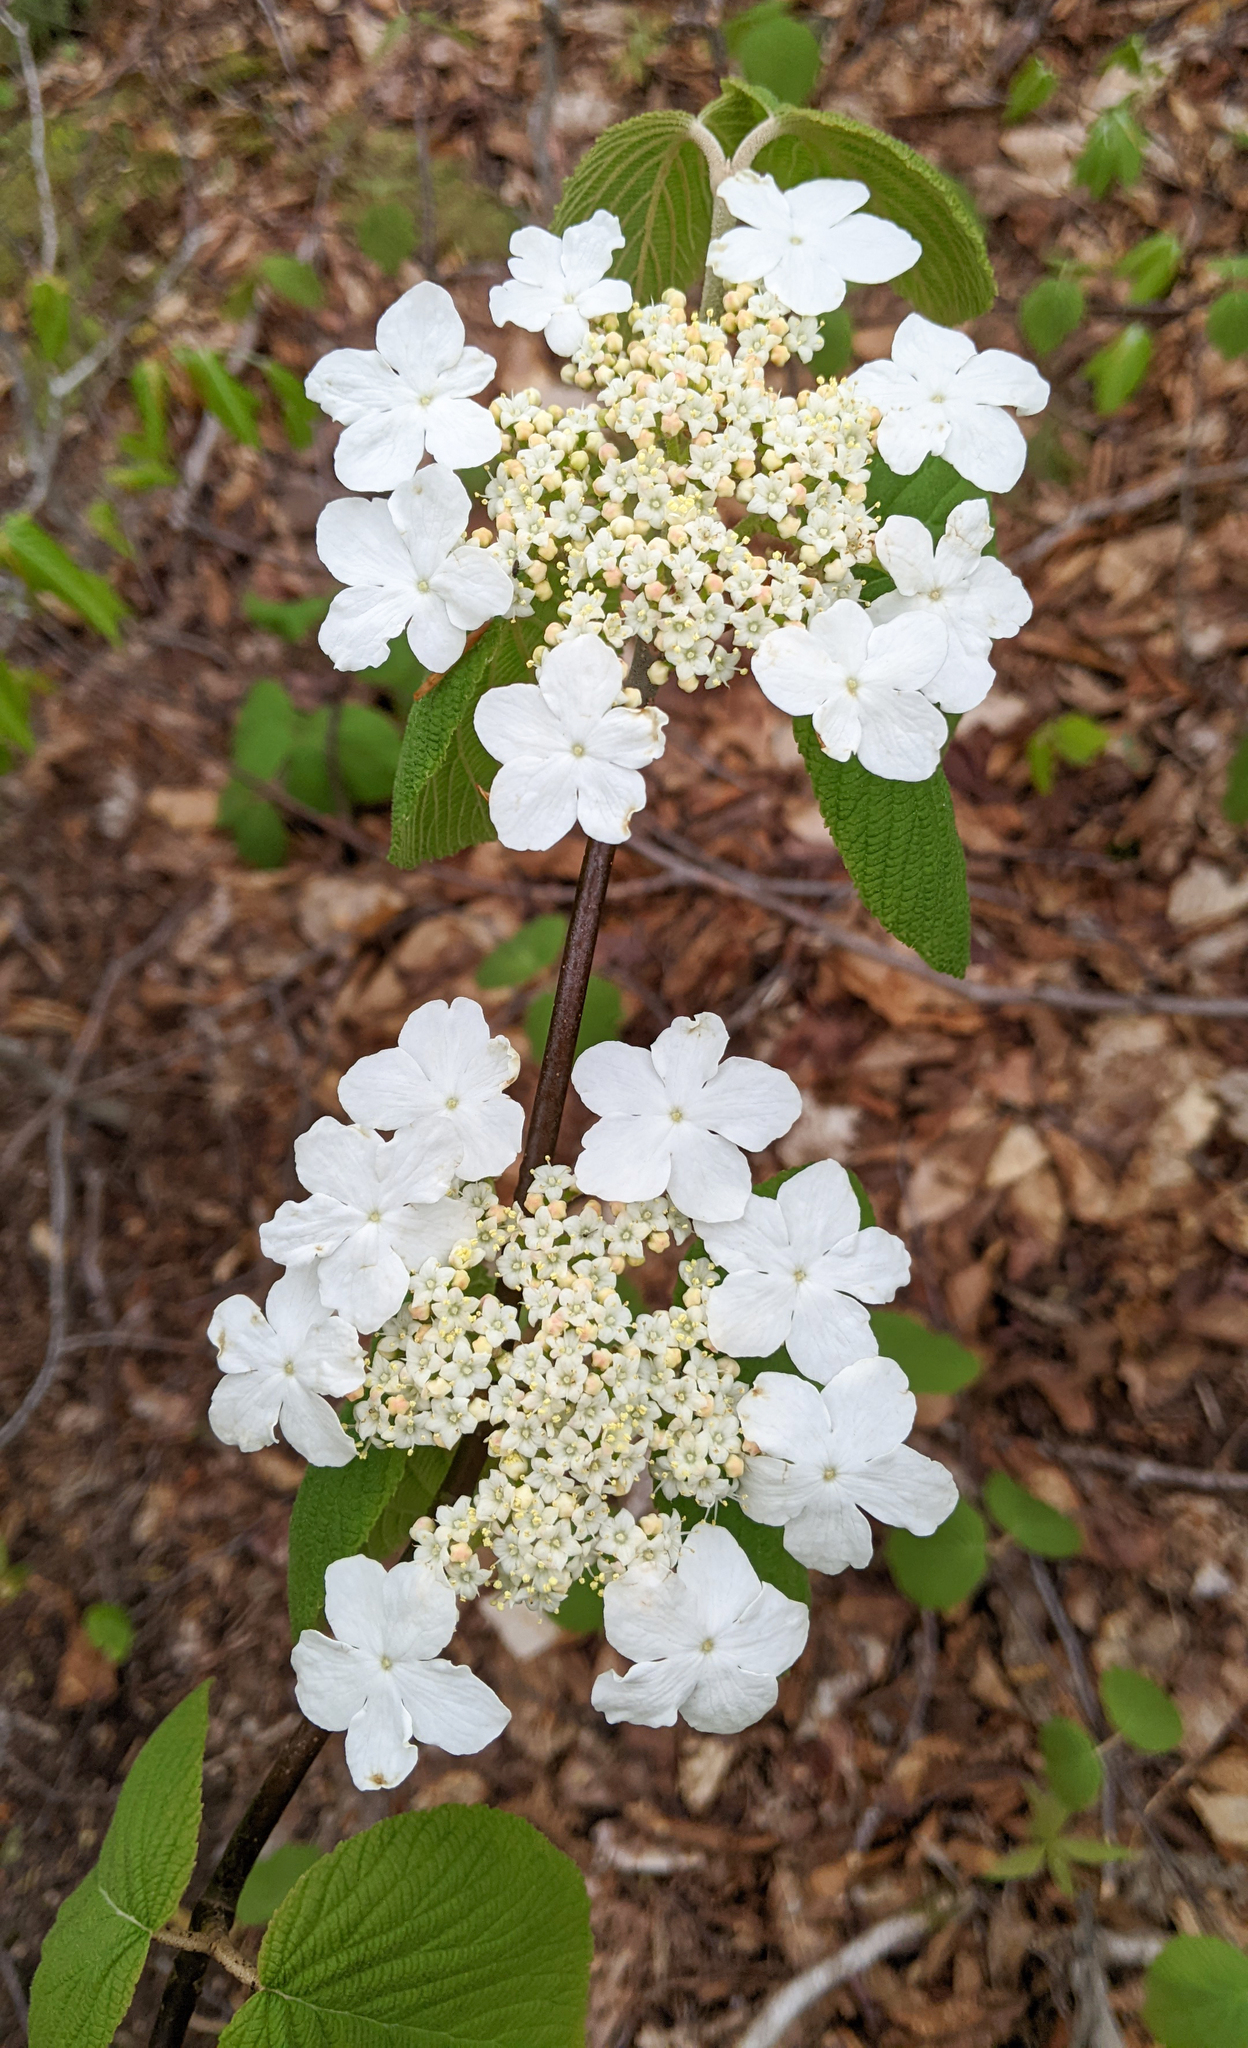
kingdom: Plantae
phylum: Tracheophyta
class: Magnoliopsida
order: Dipsacales
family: Viburnaceae
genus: Viburnum
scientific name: Viburnum lantanoides
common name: Hobblebush
